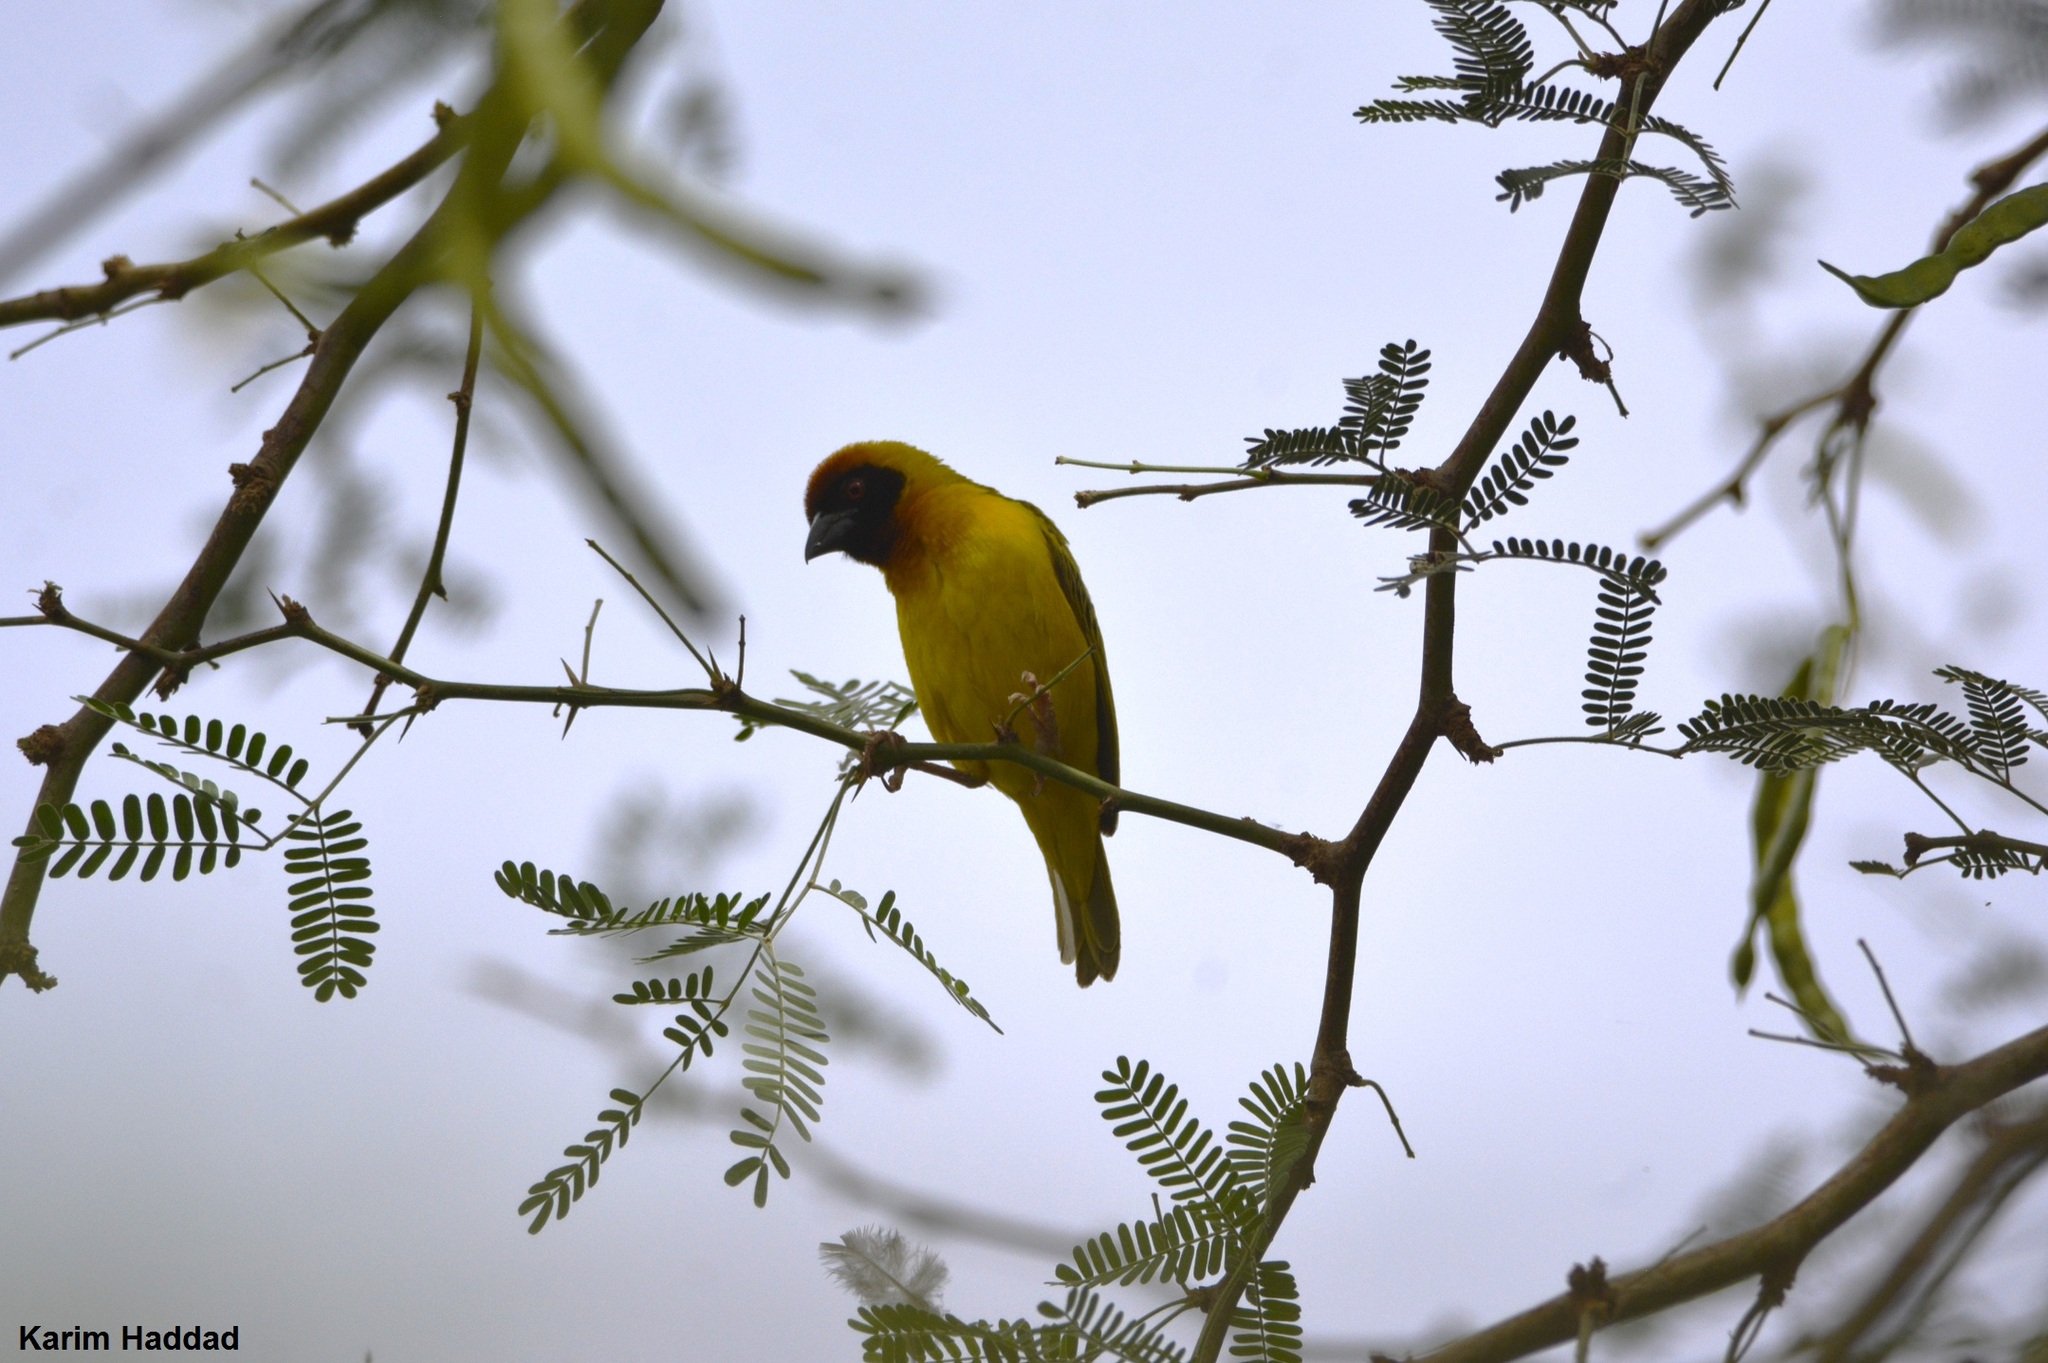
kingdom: Animalia
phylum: Chordata
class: Aves
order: Passeriformes
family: Ploceidae
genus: Ploceus
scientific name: Ploceus vitellinus
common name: Vitelline masked weaver
